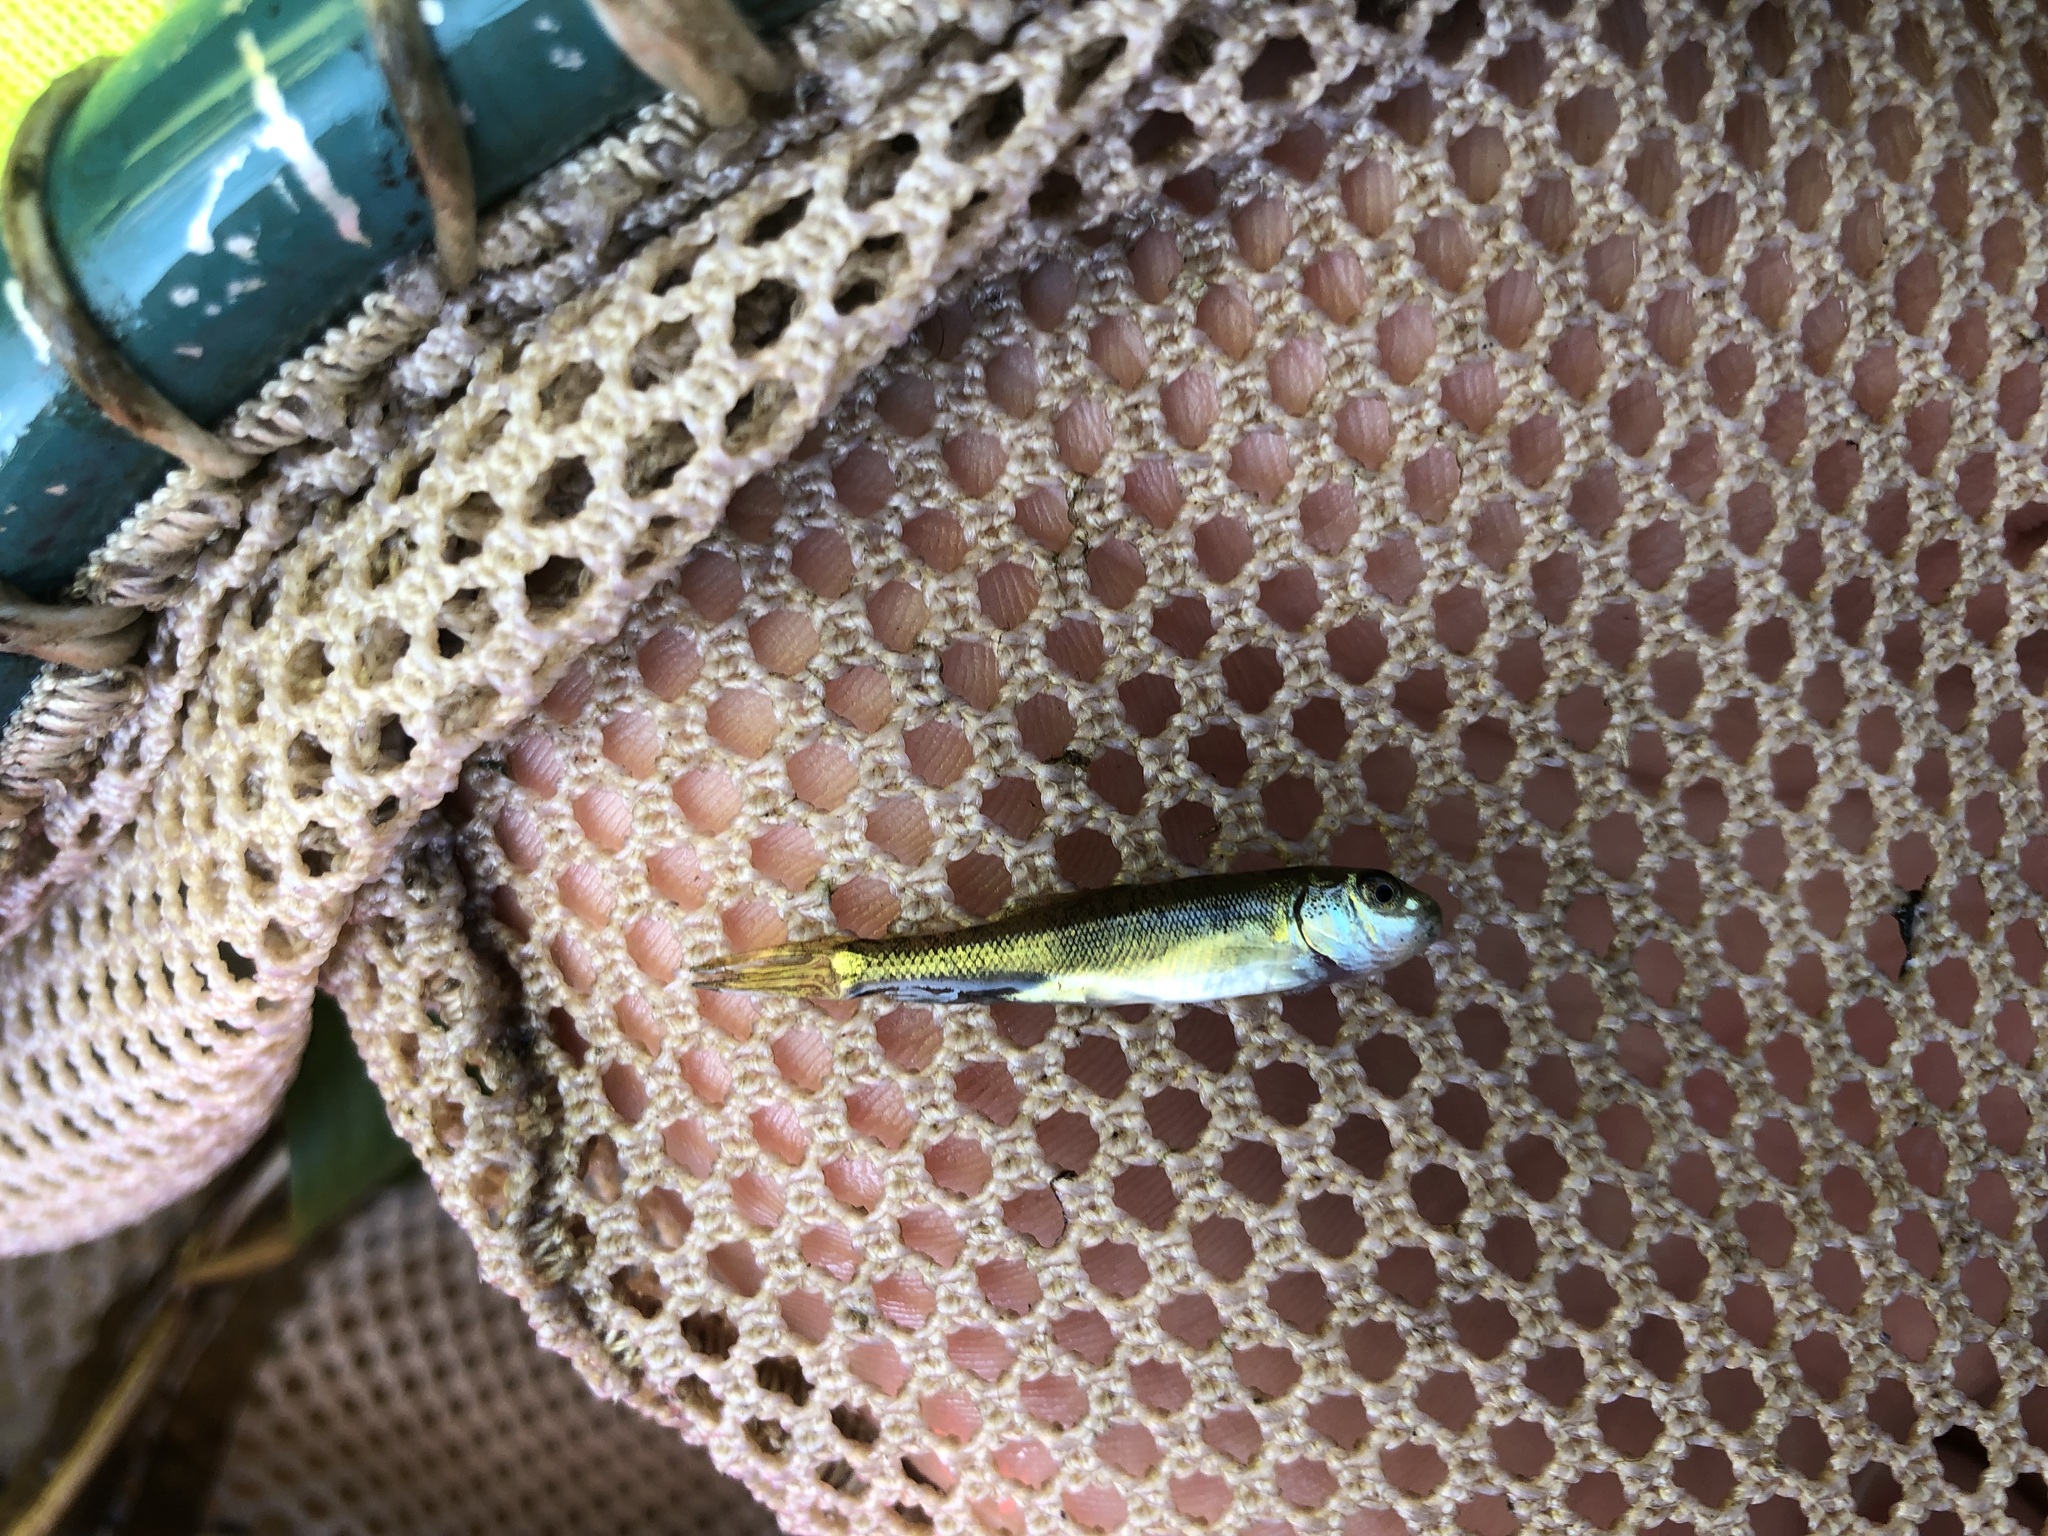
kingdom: Animalia
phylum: Chordata
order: Cypriniformes
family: Catostomidae
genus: Catostomus
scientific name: Catostomus commersonii
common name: White sucker
